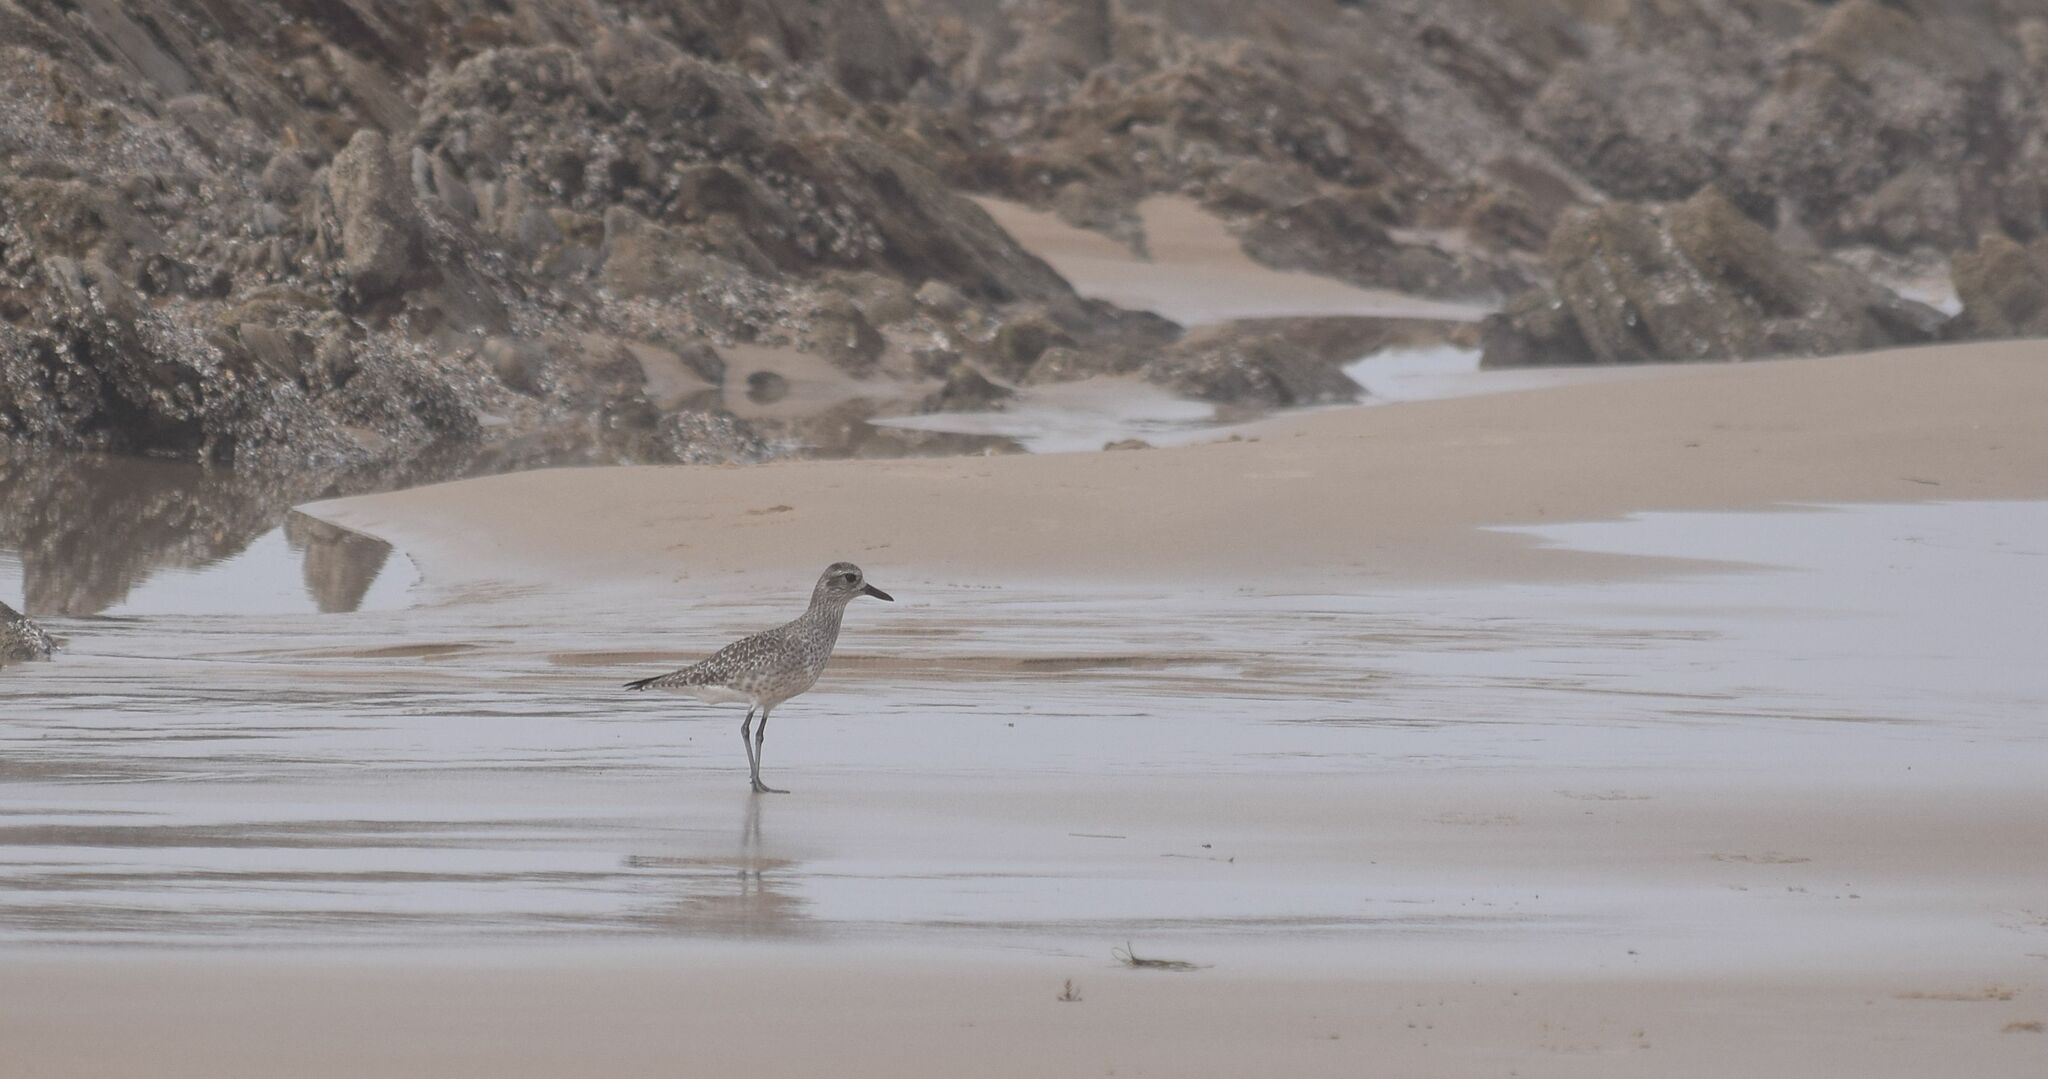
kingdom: Animalia
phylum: Chordata
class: Aves
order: Charadriiformes
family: Charadriidae
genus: Pluvialis
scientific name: Pluvialis squatarola
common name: Grey plover
